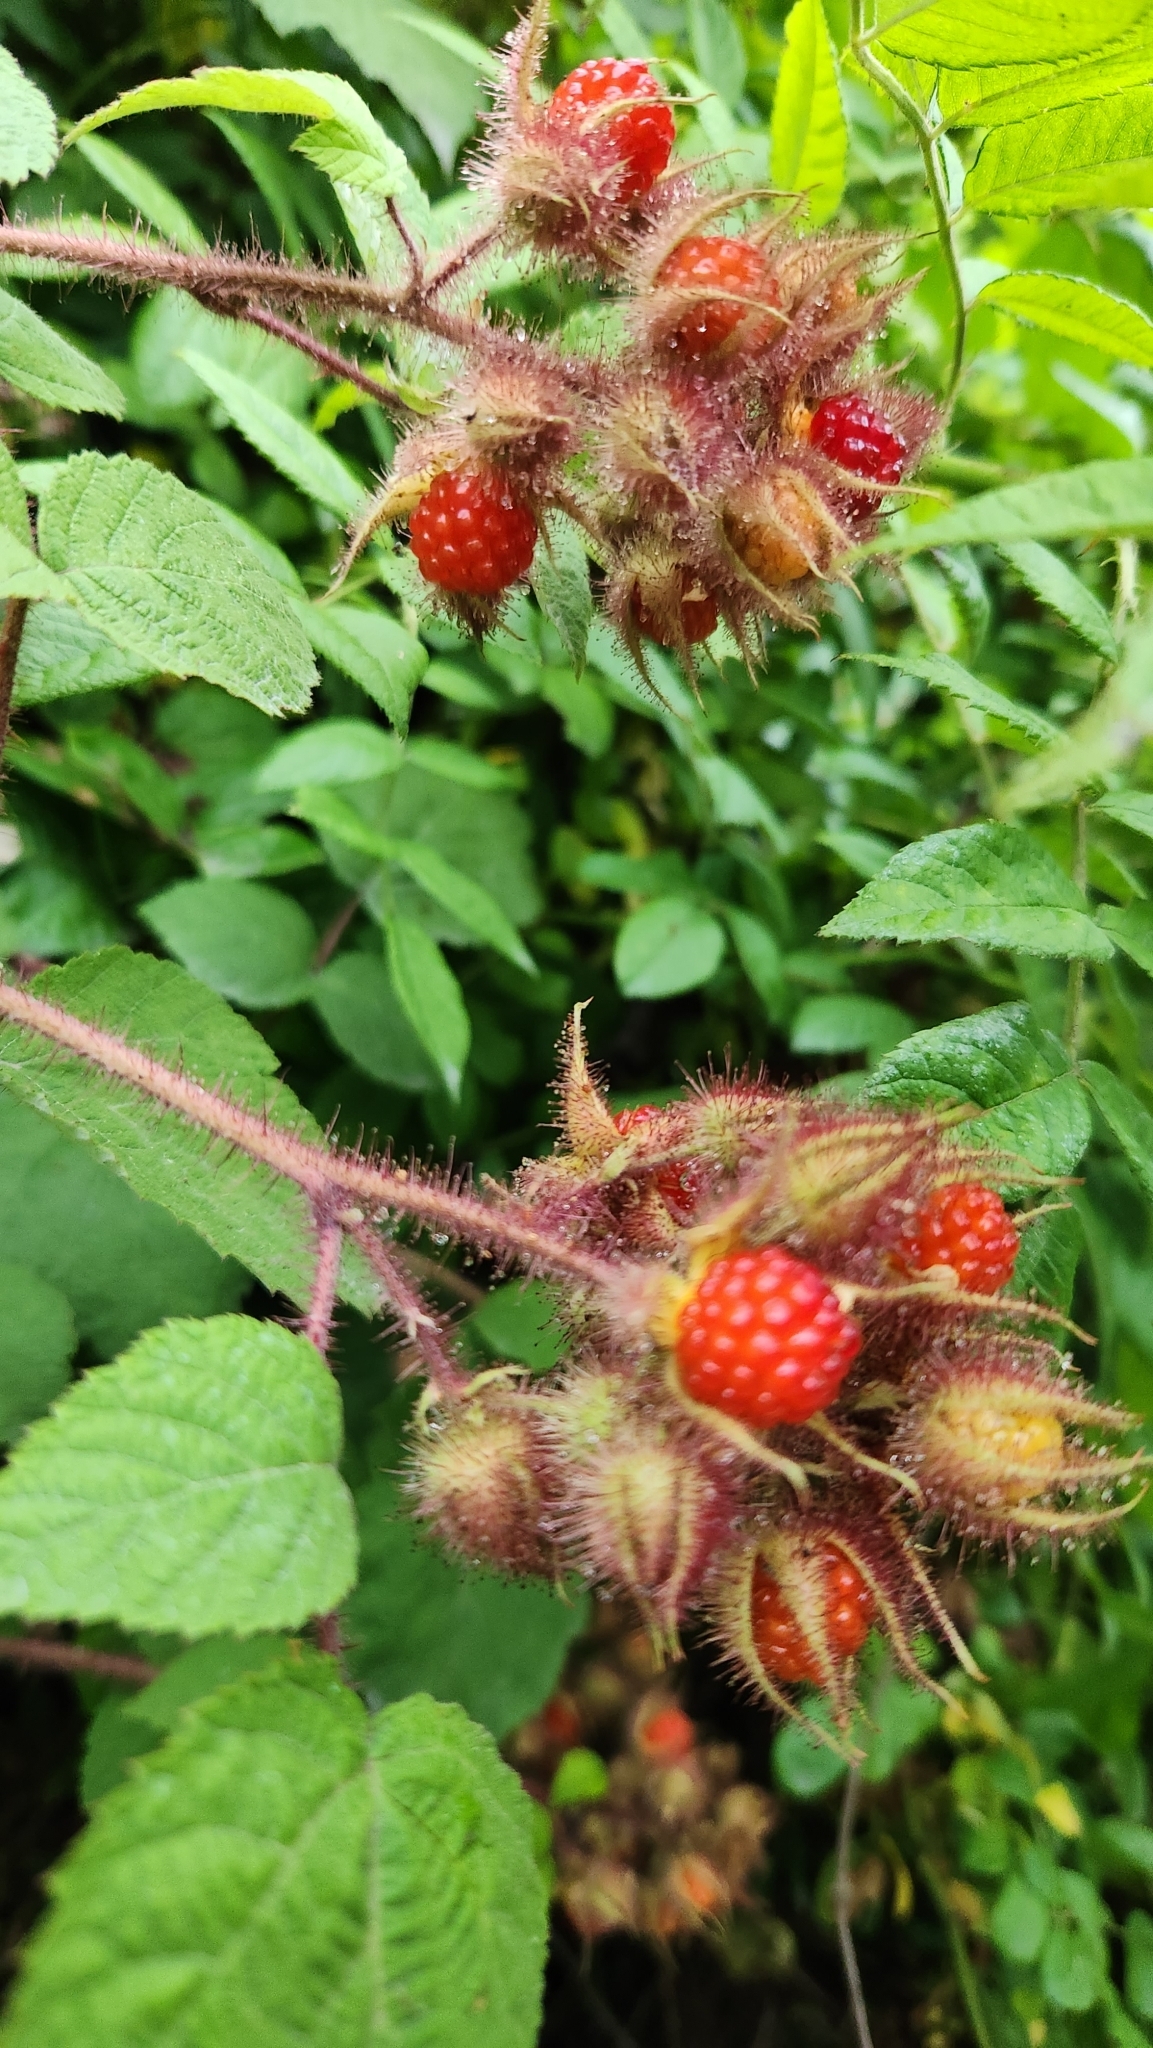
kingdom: Plantae
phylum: Tracheophyta
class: Magnoliopsida
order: Rosales
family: Rosaceae
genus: Rubus
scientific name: Rubus phoenicolasius
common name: Japanese wineberry
